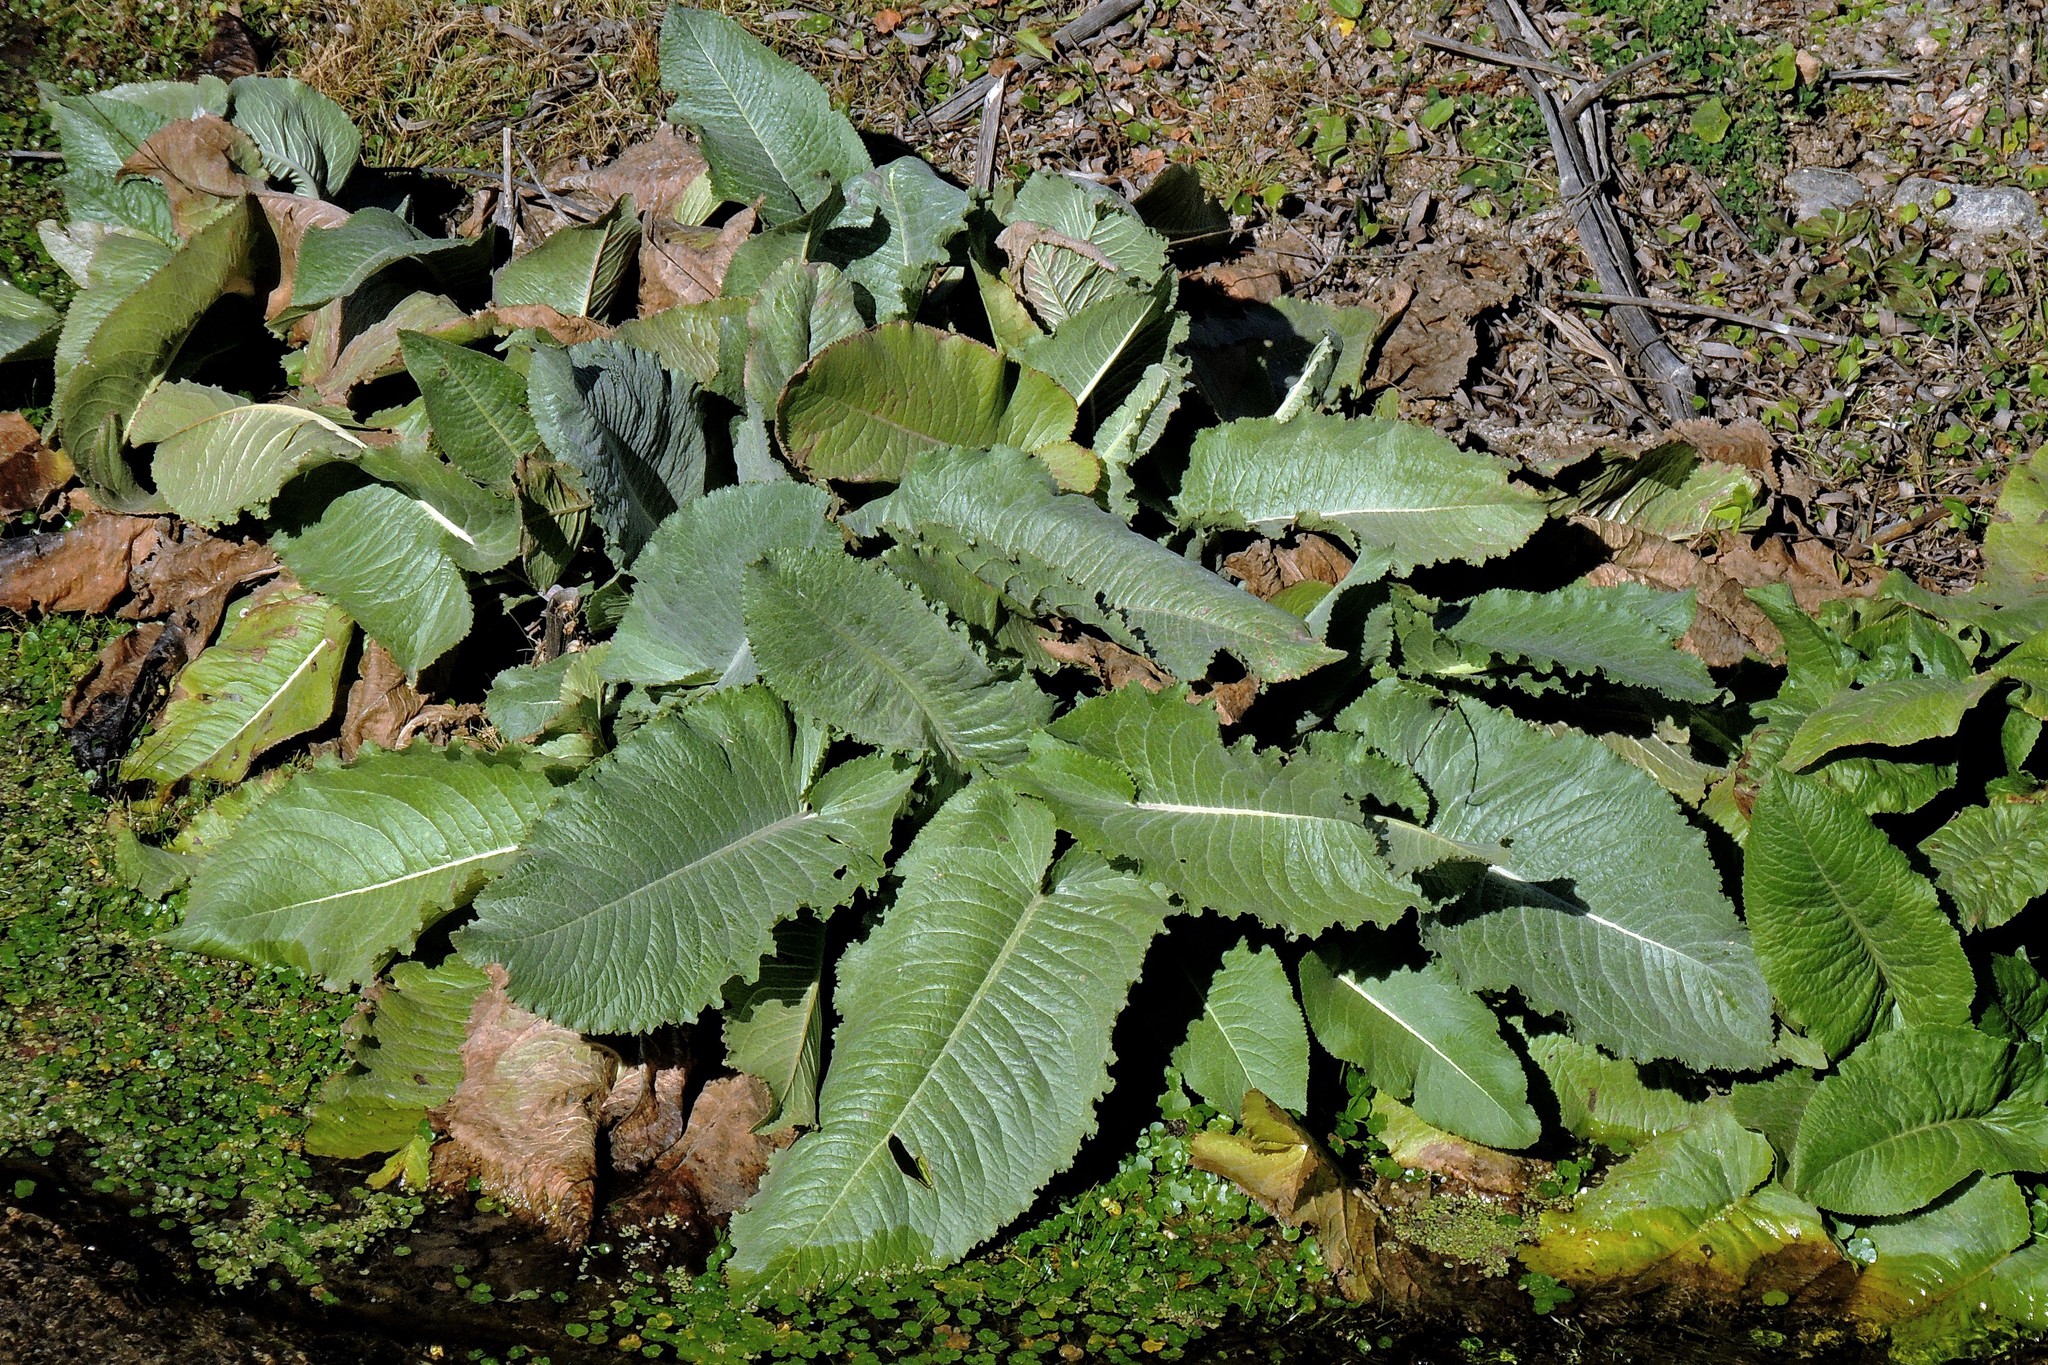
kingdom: Plantae
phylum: Tracheophyta
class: Magnoliopsida
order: Asterales
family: Asteraceae
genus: Senecio
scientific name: Senecio bonariensis
